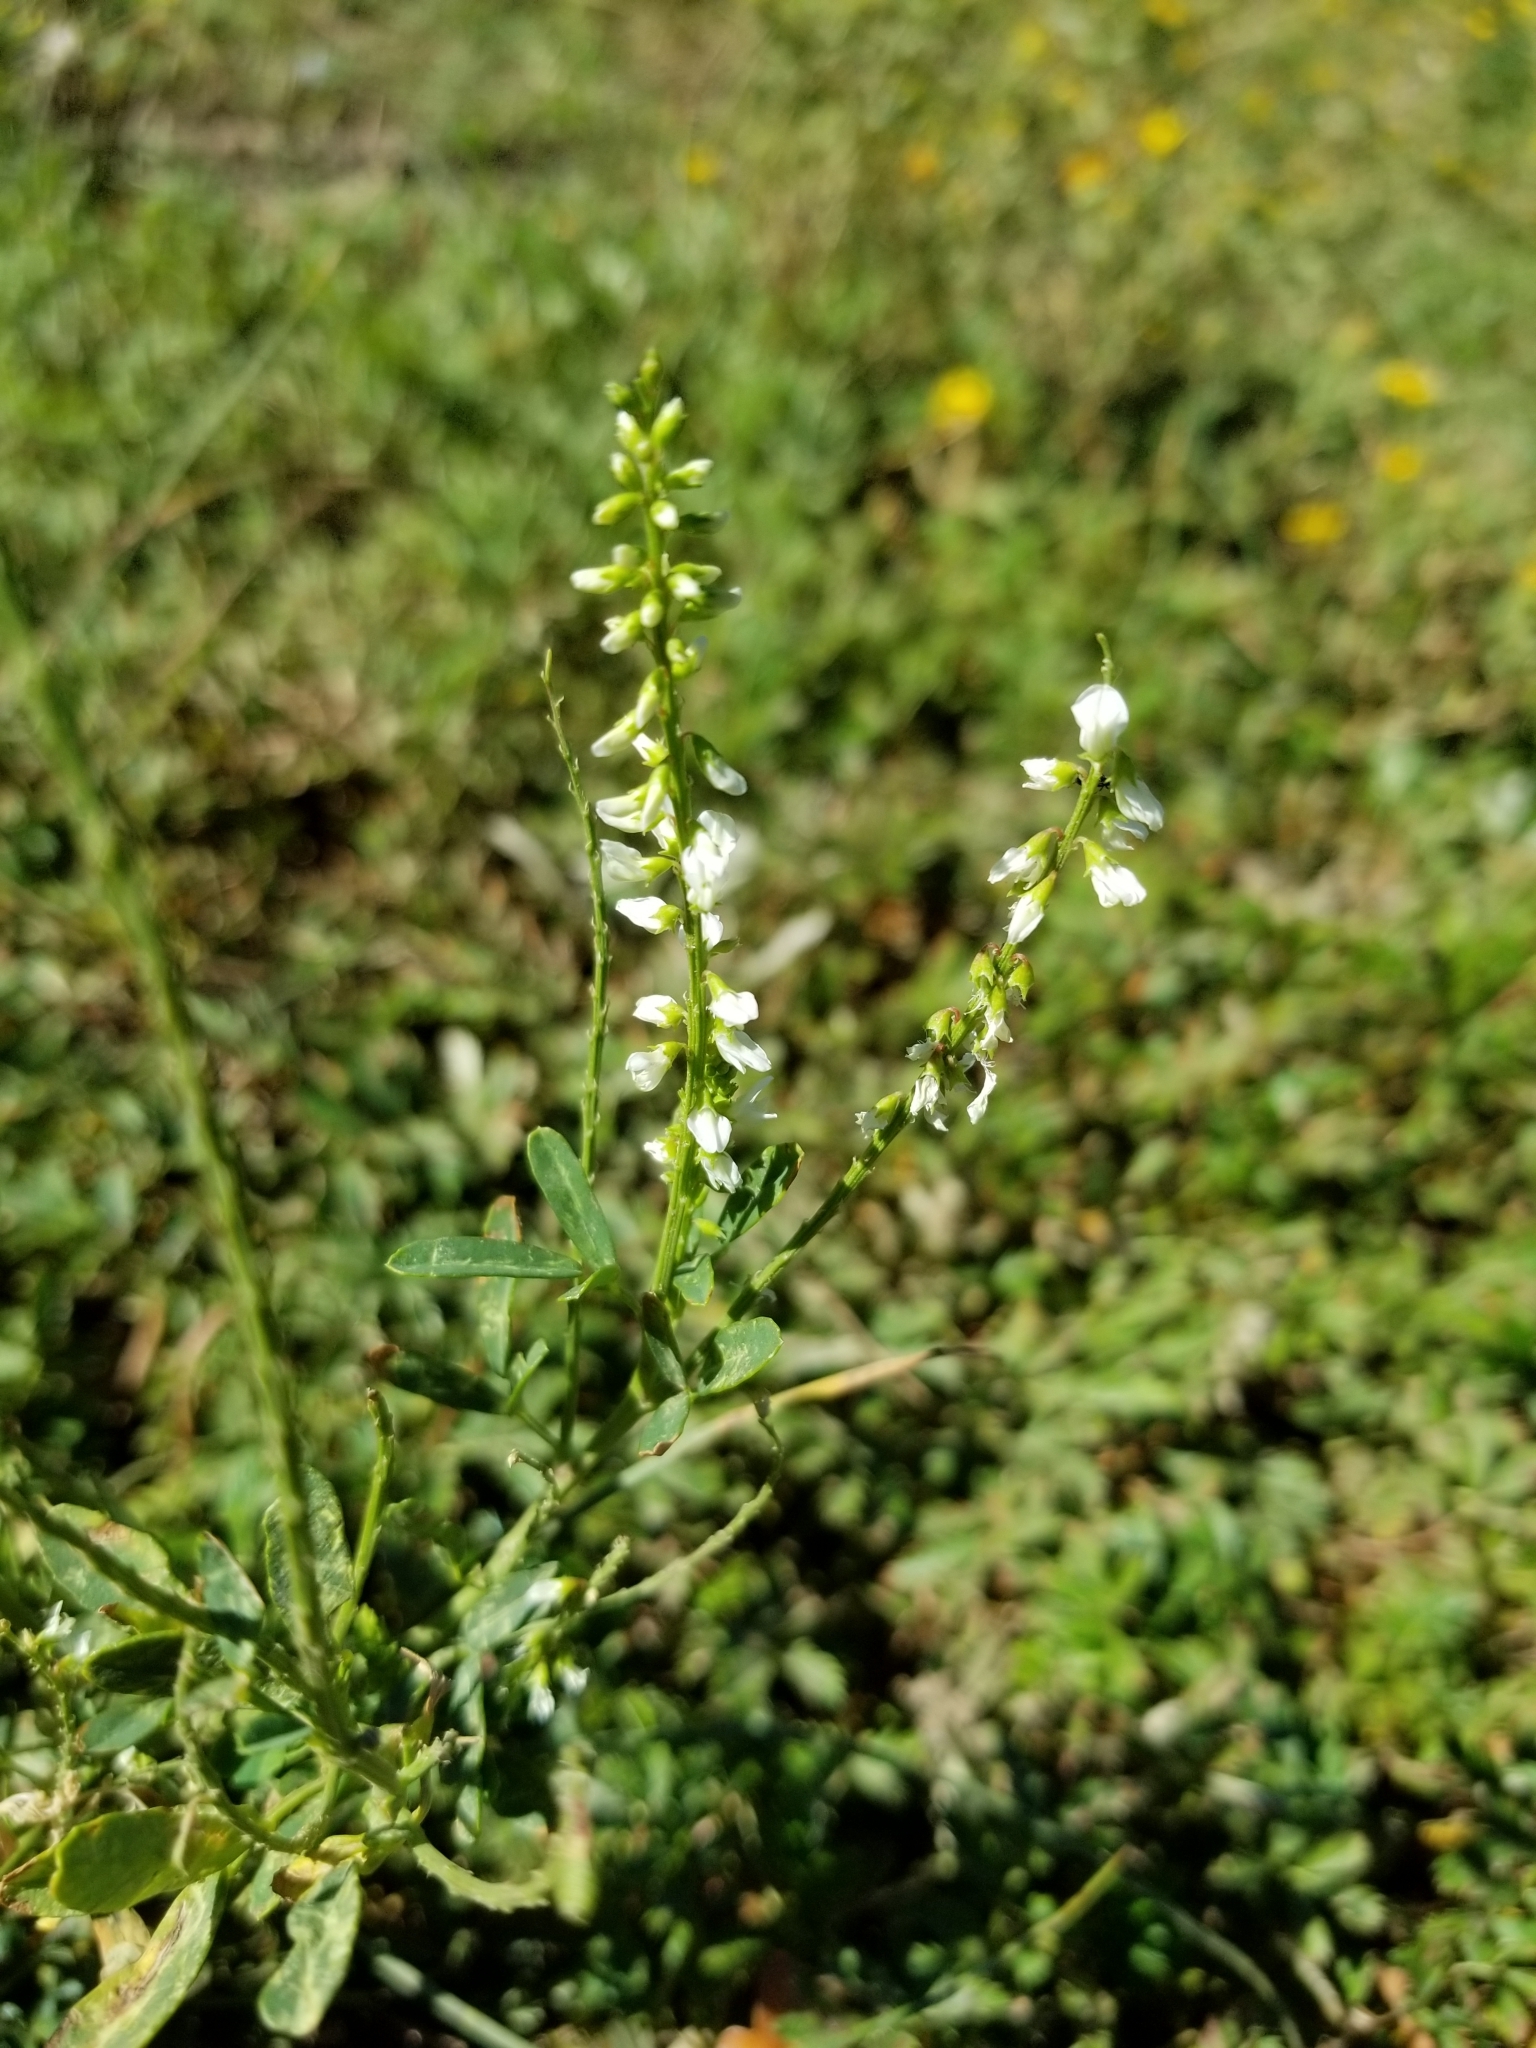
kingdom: Plantae
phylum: Tracheophyta
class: Magnoliopsida
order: Fabales
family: Fabaceae
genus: Melilotus
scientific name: Melilotus albus
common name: White melilot
